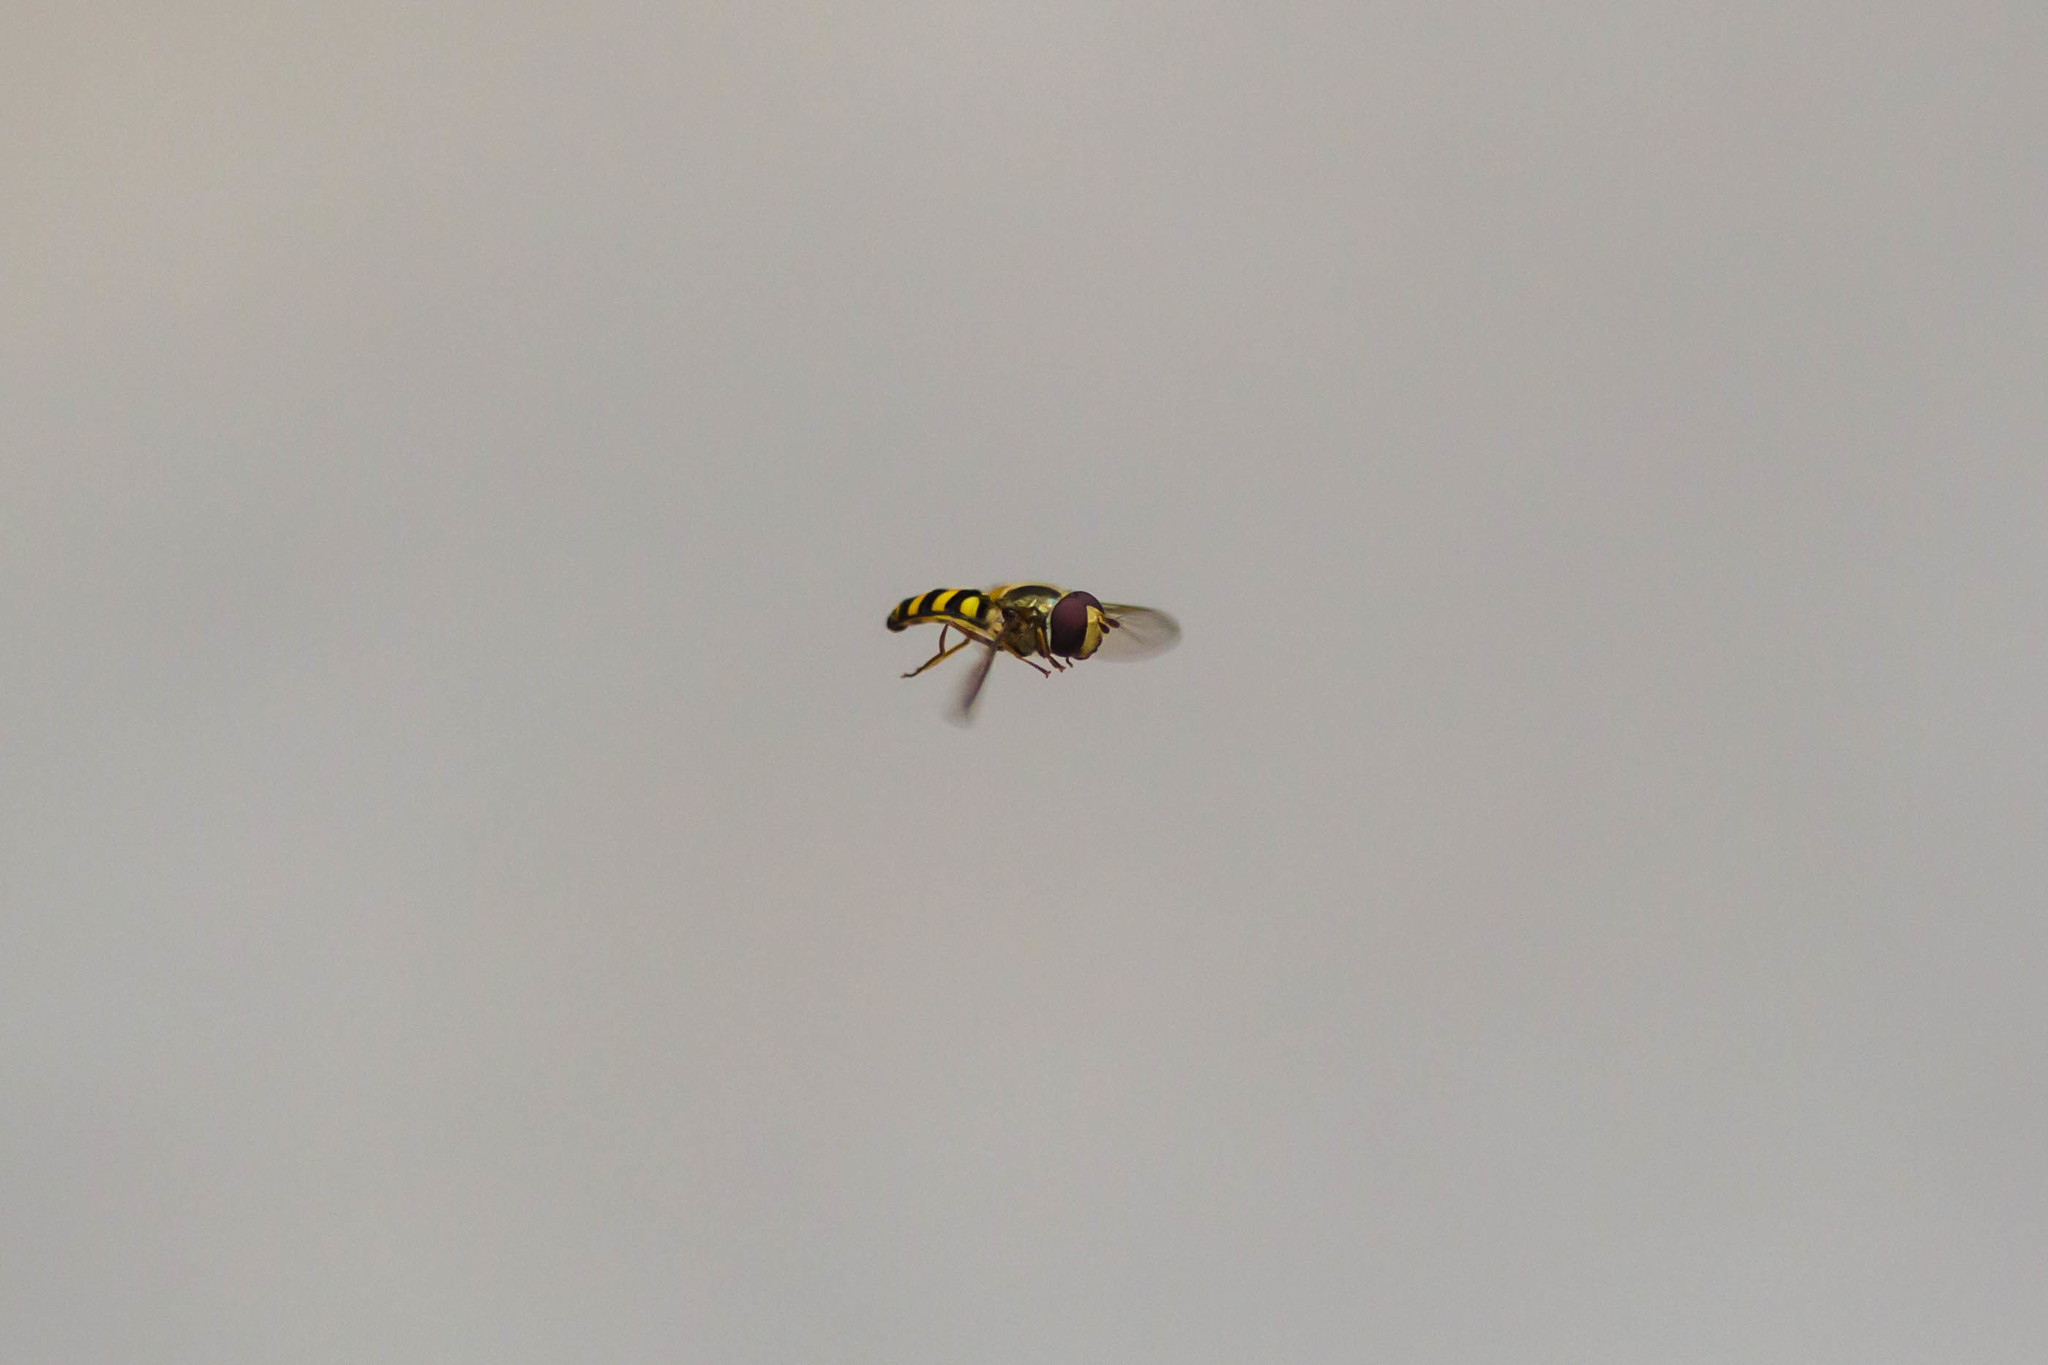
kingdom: Animalia
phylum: Arthropoda
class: Insecta
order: Diptera
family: Syrphidae
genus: Eupeodes
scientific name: Eupeodes
